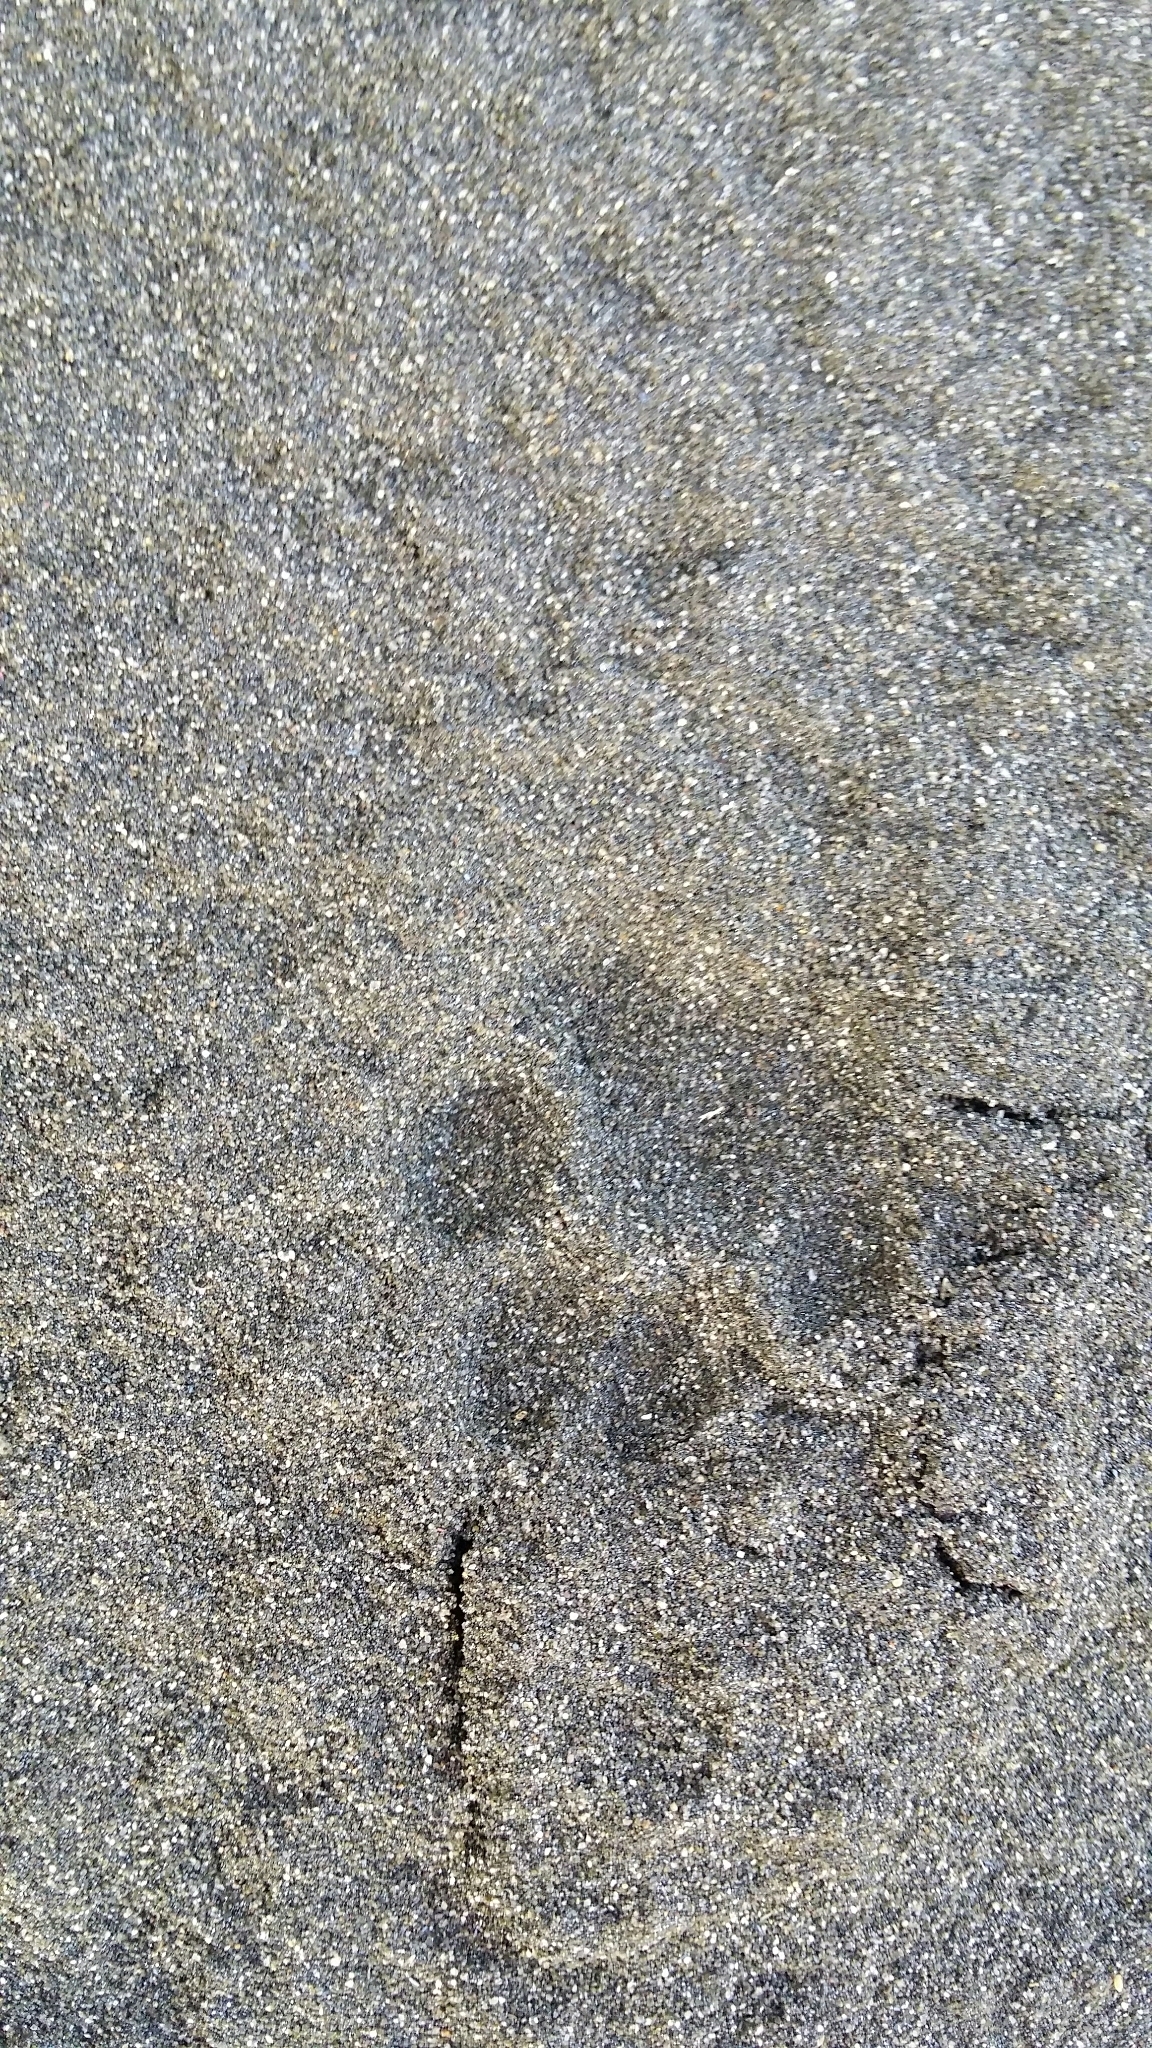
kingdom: Animalia
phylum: Chordata
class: Mammalia
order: Carnivora
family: Felidae
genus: Felis
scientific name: Felis catus
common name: Domestic cat
